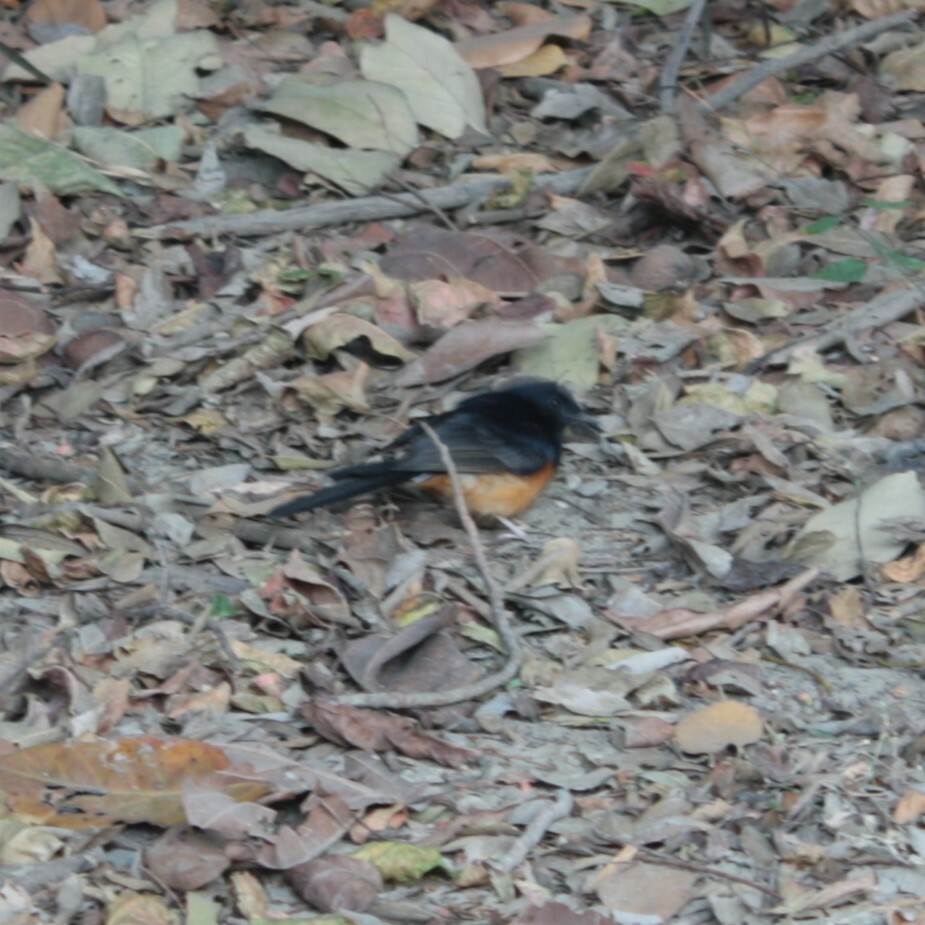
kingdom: Animalia
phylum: Chordata
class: Aves
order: Passeriformes
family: Muscicapidae
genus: Copsychus
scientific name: Copsychus malabaricus
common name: White-rumped shama
